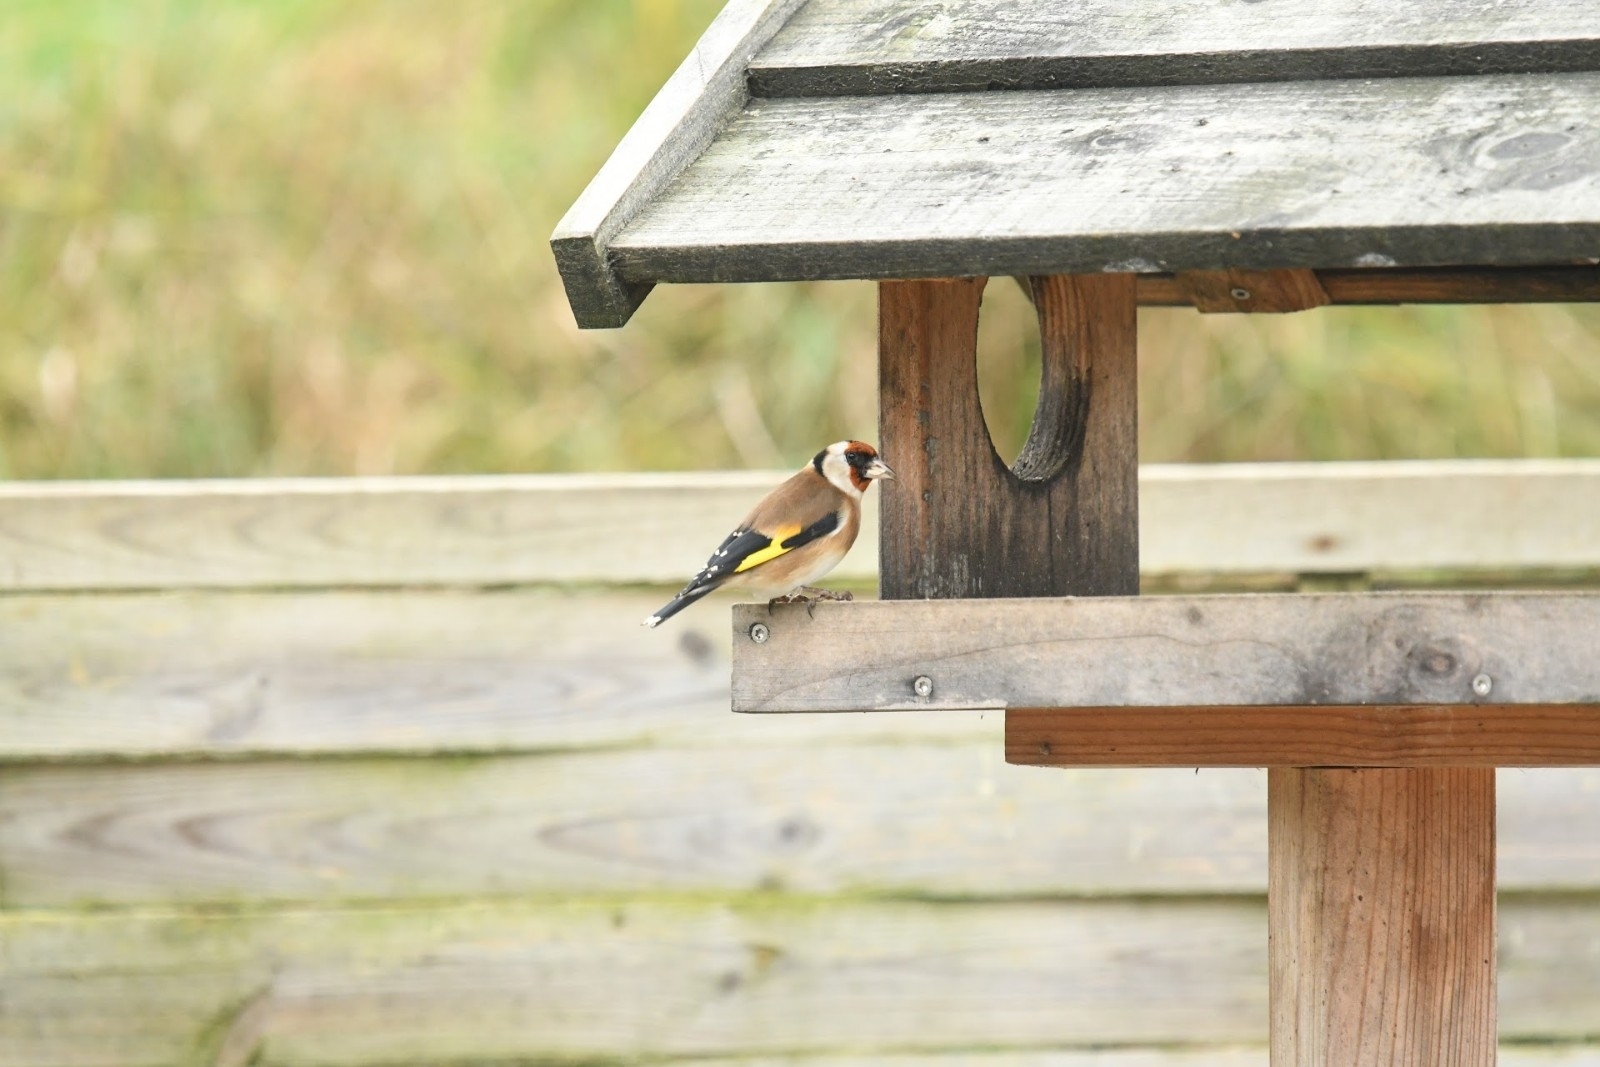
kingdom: Animalia
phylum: Chordata
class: Aves
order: Passeriformes
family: Fringillidae
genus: Carduelis
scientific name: Carduelis carduelis
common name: European goldfinch
